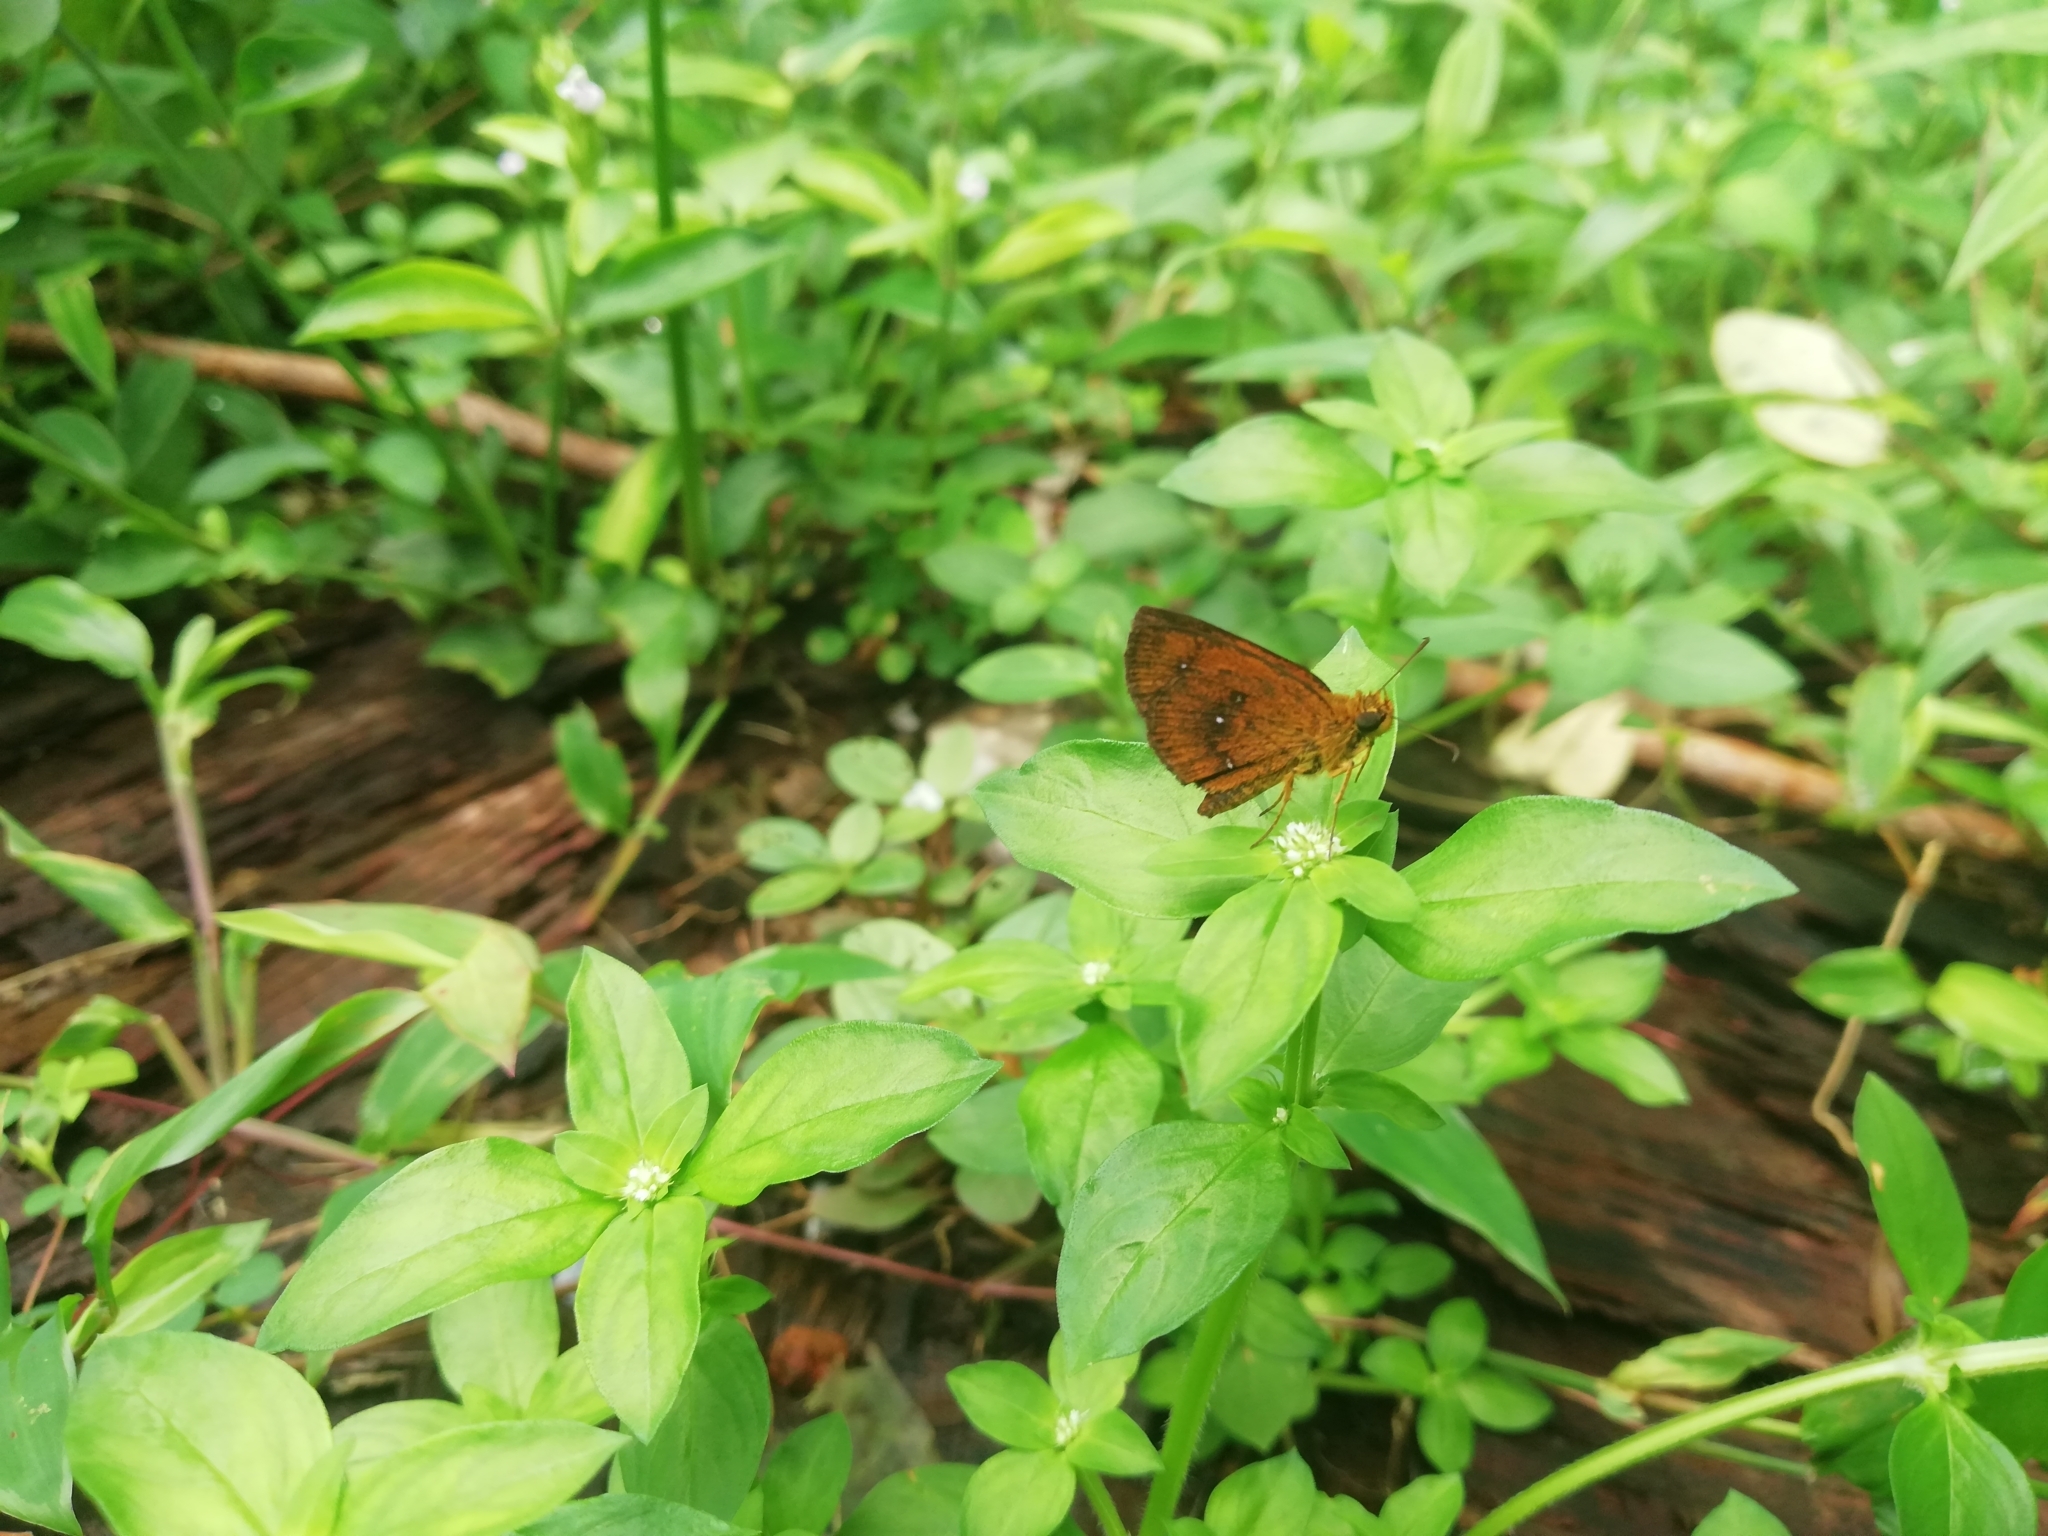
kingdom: Animalia
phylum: Arthropoda
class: Insecta
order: Lepidoptera
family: Hesperiidae
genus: Iambrix
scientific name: Iambrix salsala
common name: Chestnut bob
